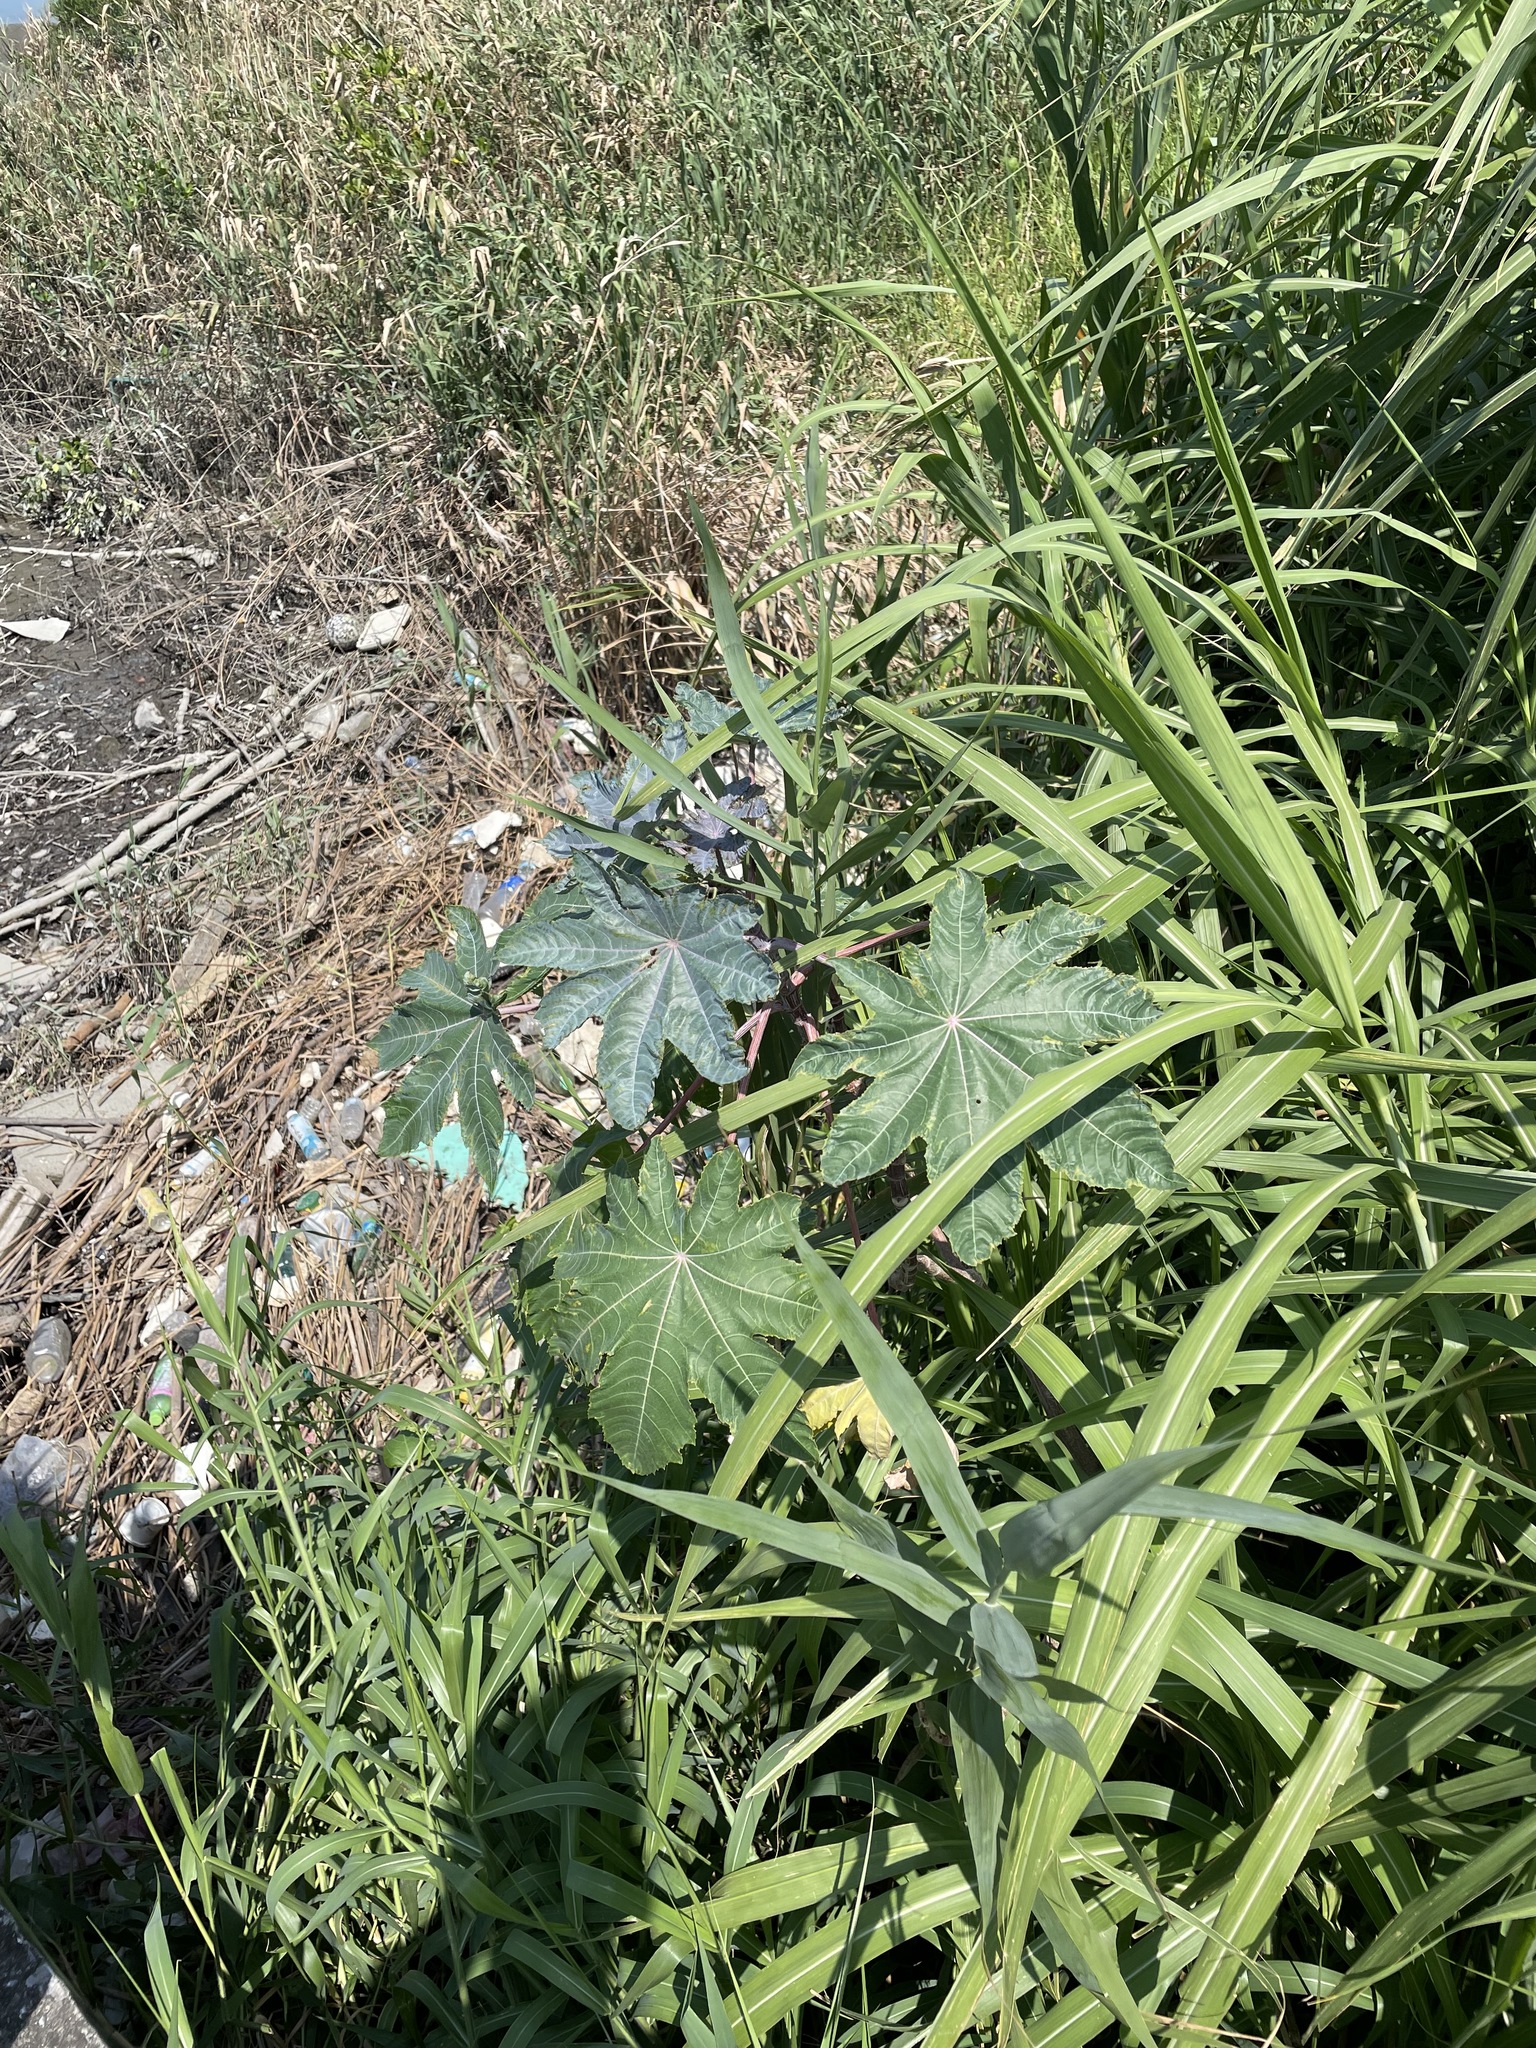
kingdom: Plantae
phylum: Tracheophyta
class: Magnoliopsida
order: Malpighiales
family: Euphorbiaceae
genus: Ricinus
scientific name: Ricinus communis
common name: Castor-oil-plant
